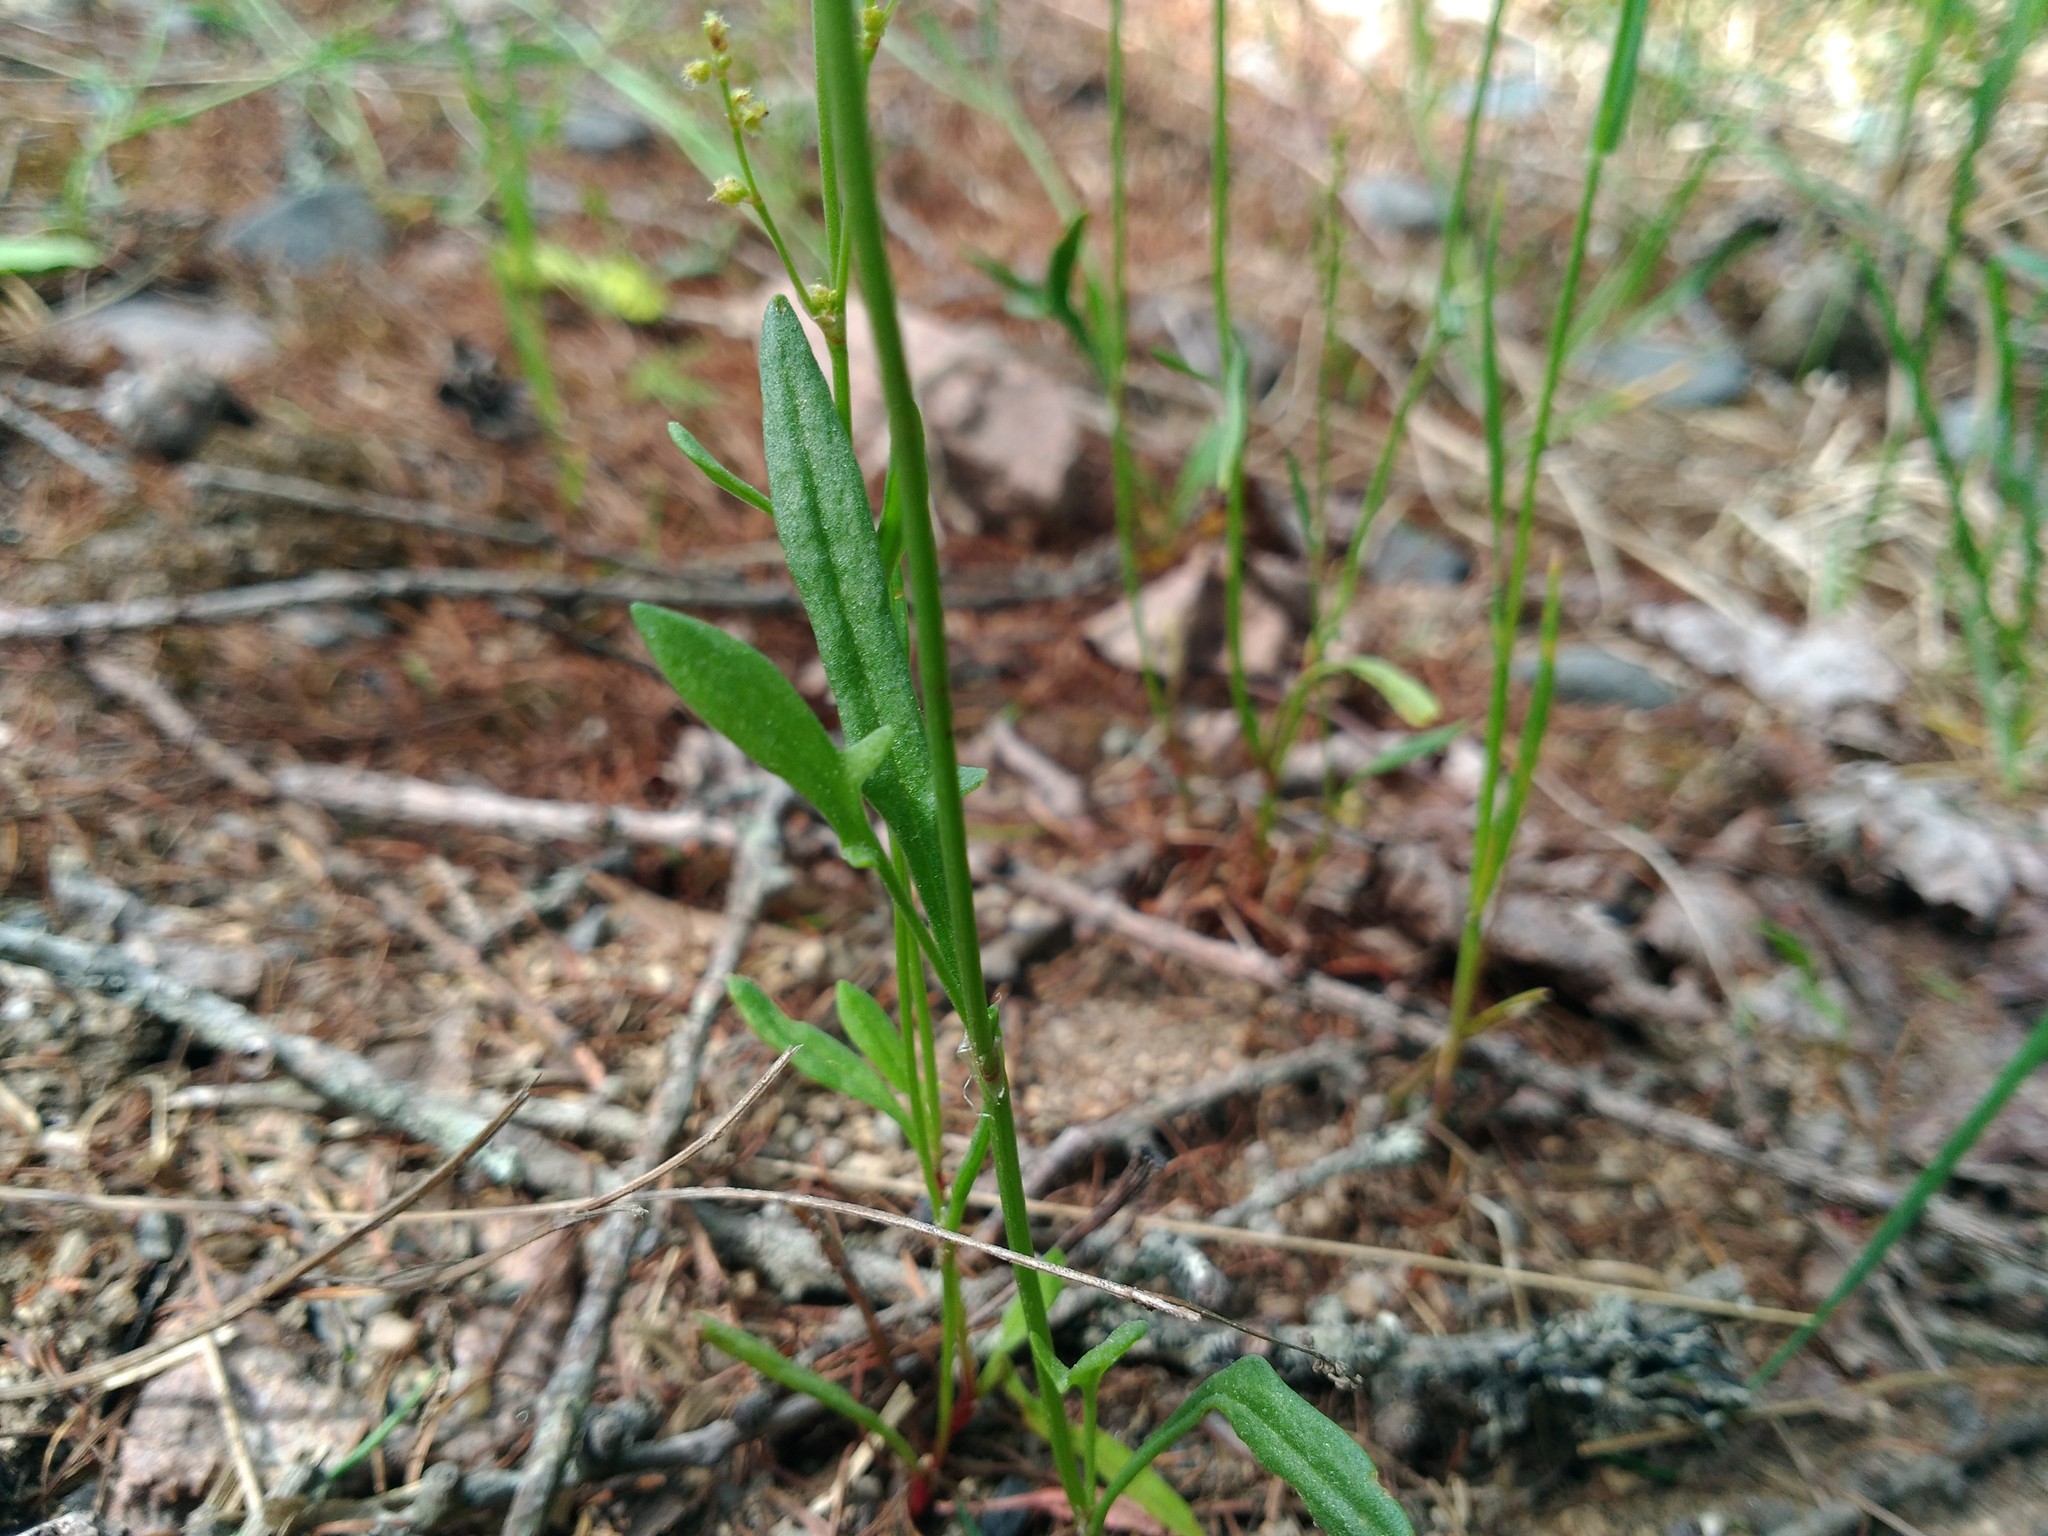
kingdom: Plantae
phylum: Tracheophyta
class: Magnoliopsida
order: Caryophyllales
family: Polygonaceae
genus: Rumex
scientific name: Rumex acetosella
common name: Common sheep sorrel
